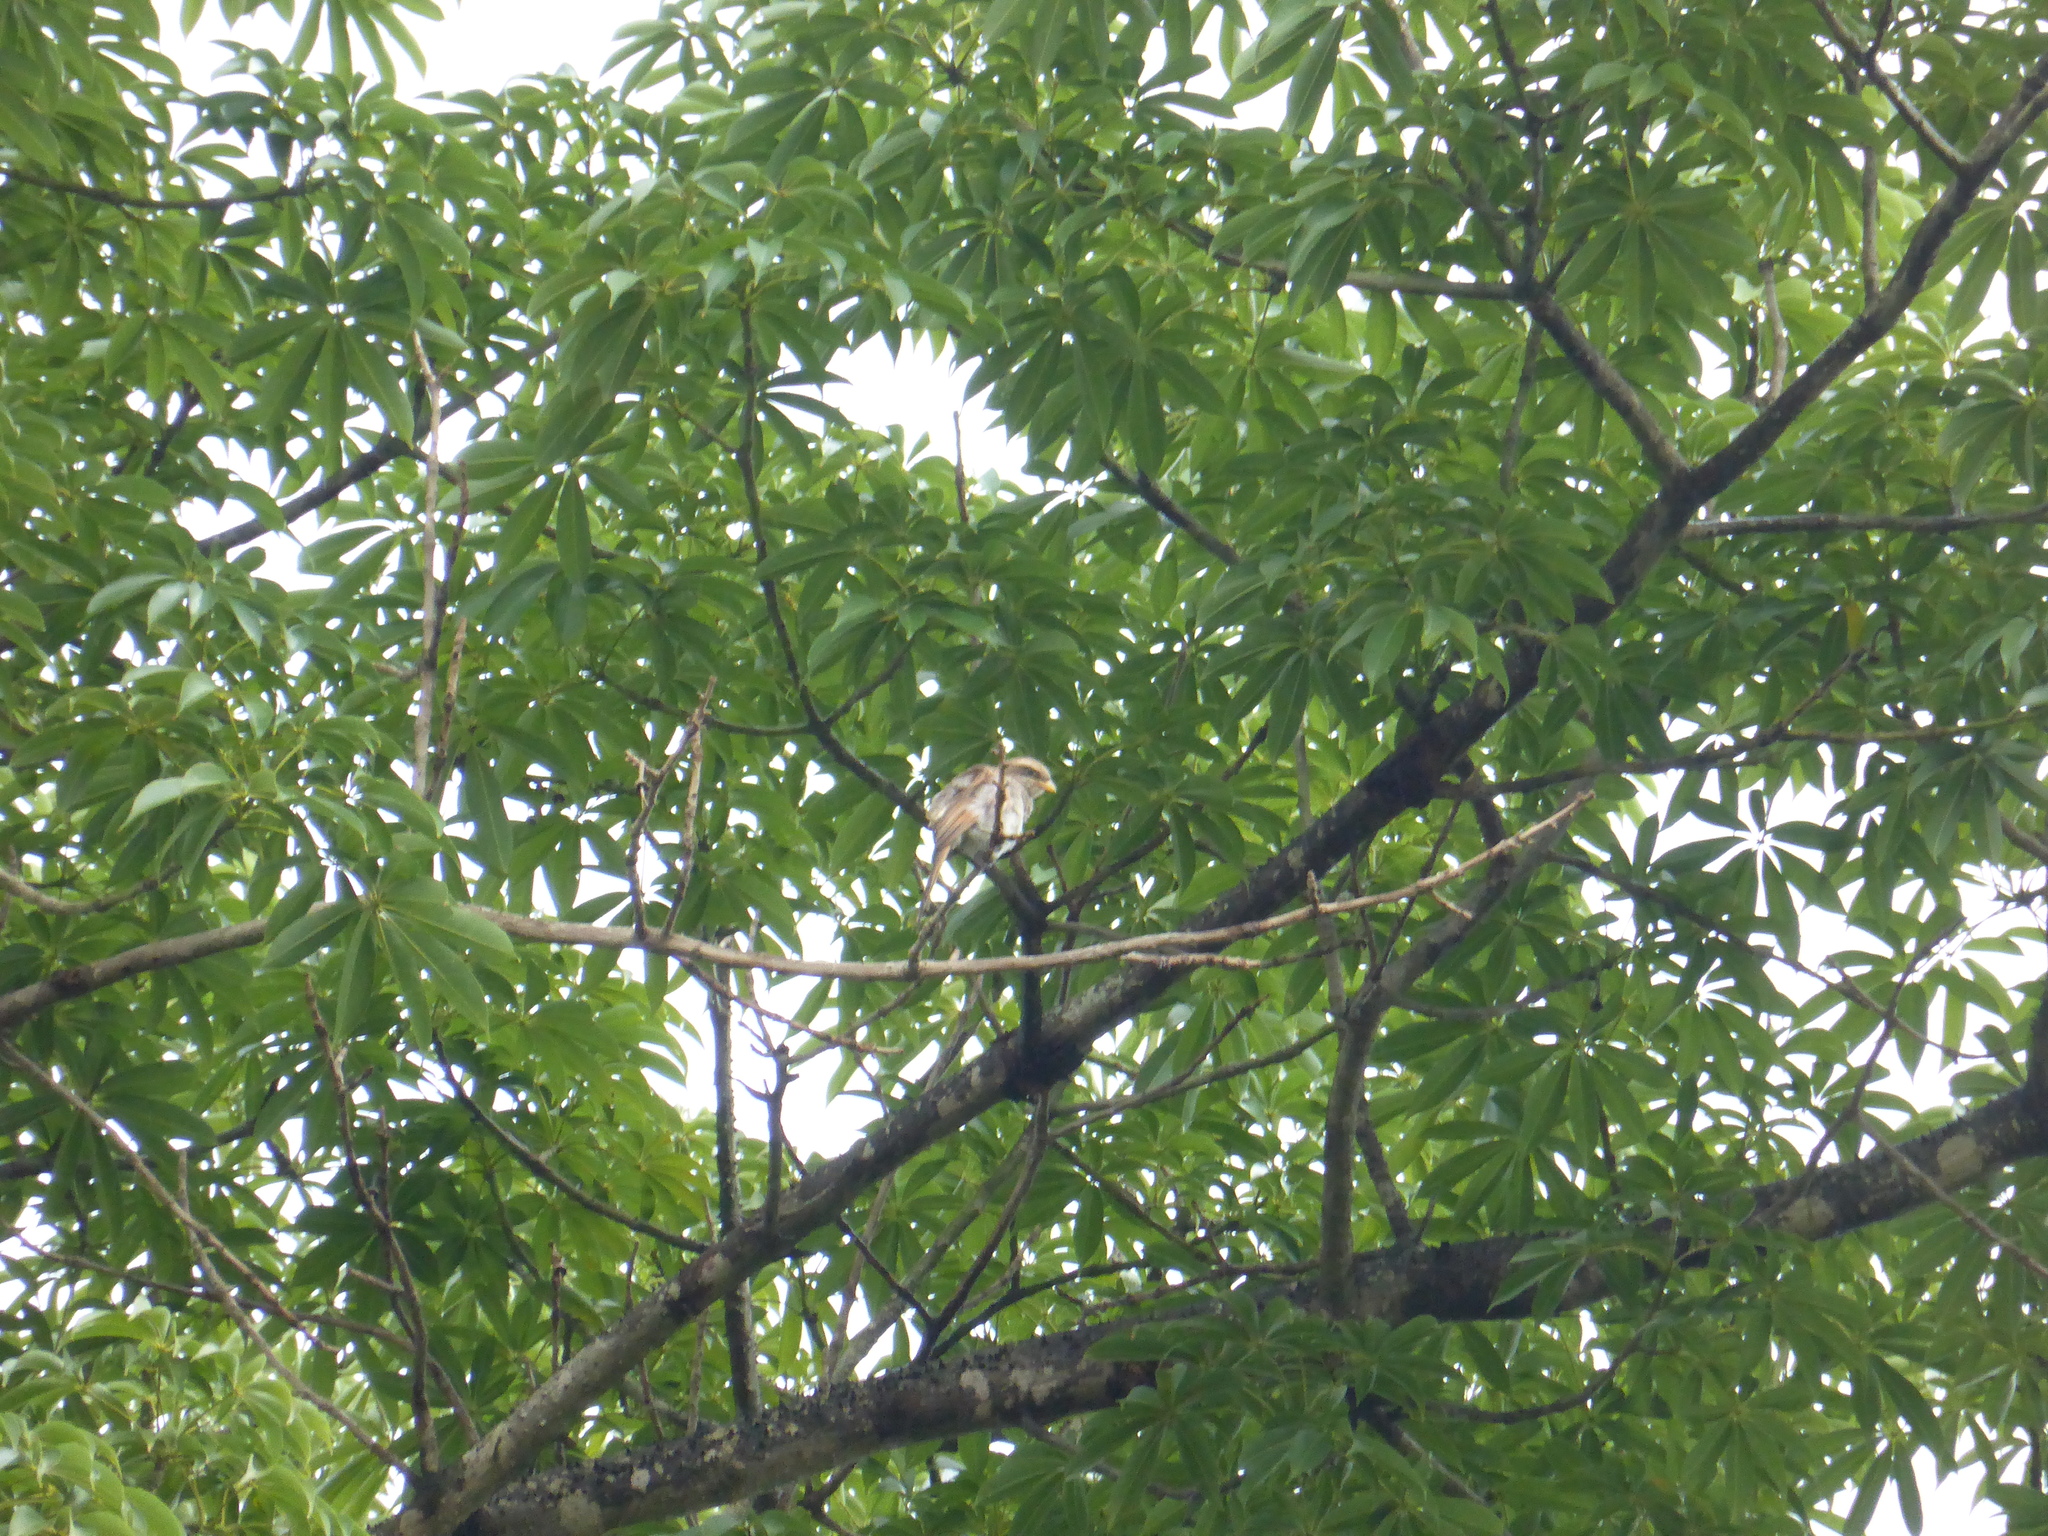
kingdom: Animalia
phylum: Chordata
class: Aves
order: Passeriformes
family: Laniidae
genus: Corvinella
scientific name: Corvinella corvina
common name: Yellow-billed shrike
